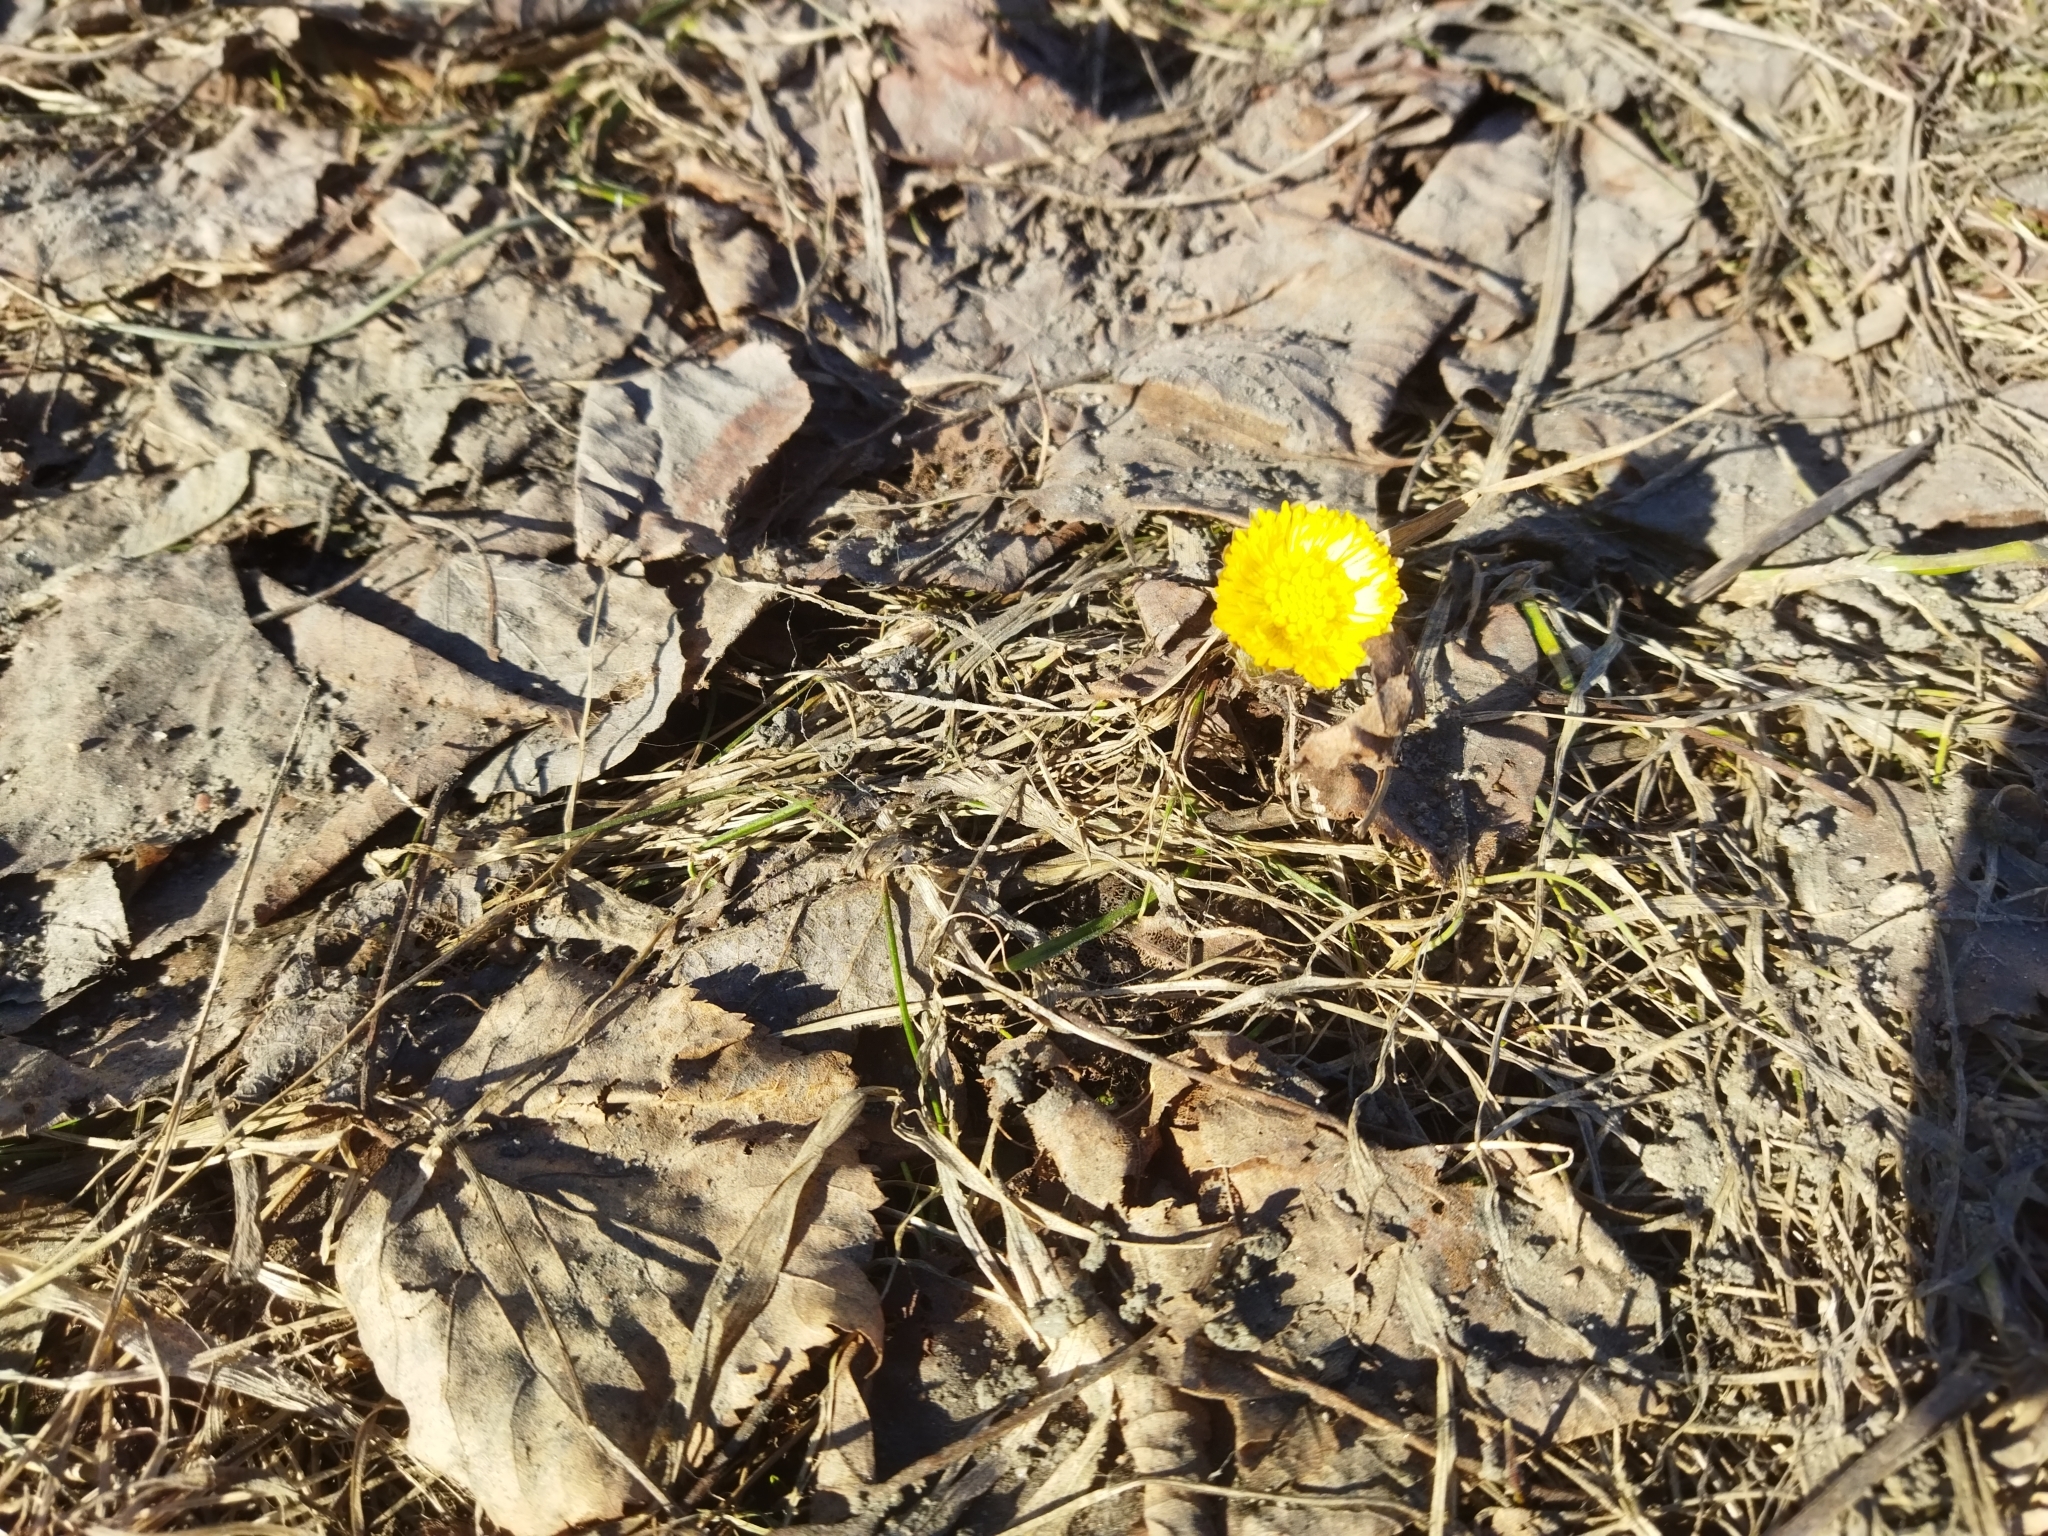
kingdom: Plantae
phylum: Tracheophyta
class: Magnoliopsida
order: Asterales
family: Asteraceae
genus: Tussilago
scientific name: Tussilago farfara
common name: Coltsfoot
